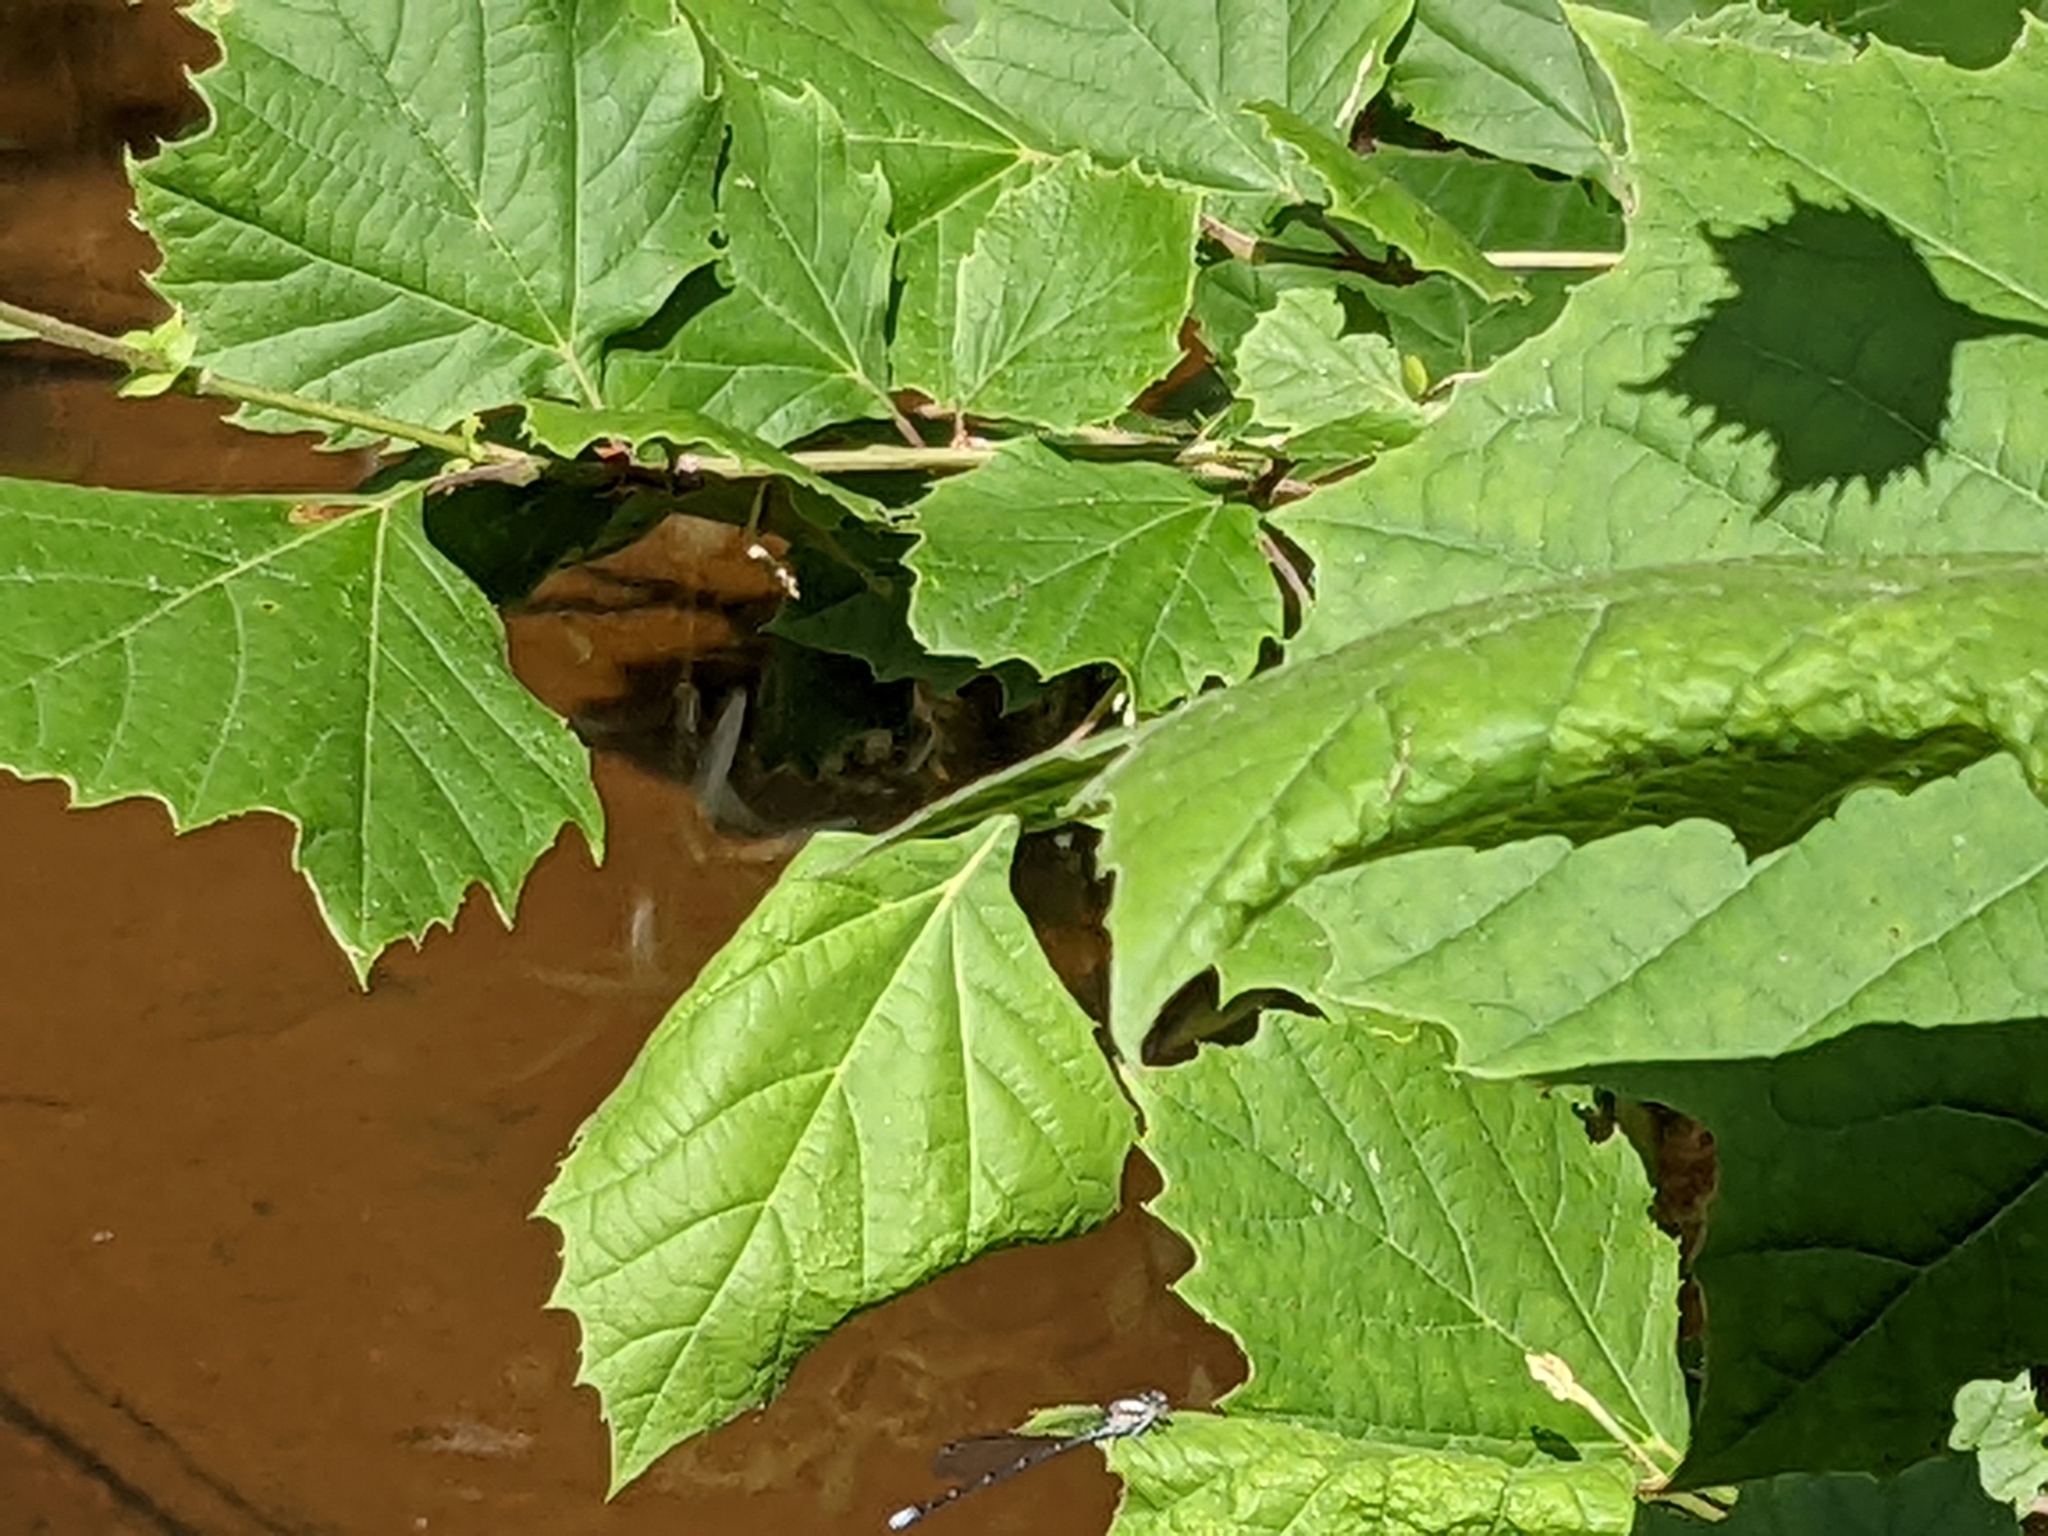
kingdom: Animalia
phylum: Arthropoda
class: Insecta
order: Odonata
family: Coenagrionidae
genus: Argia
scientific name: Argia moesta
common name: Powdered dancer
